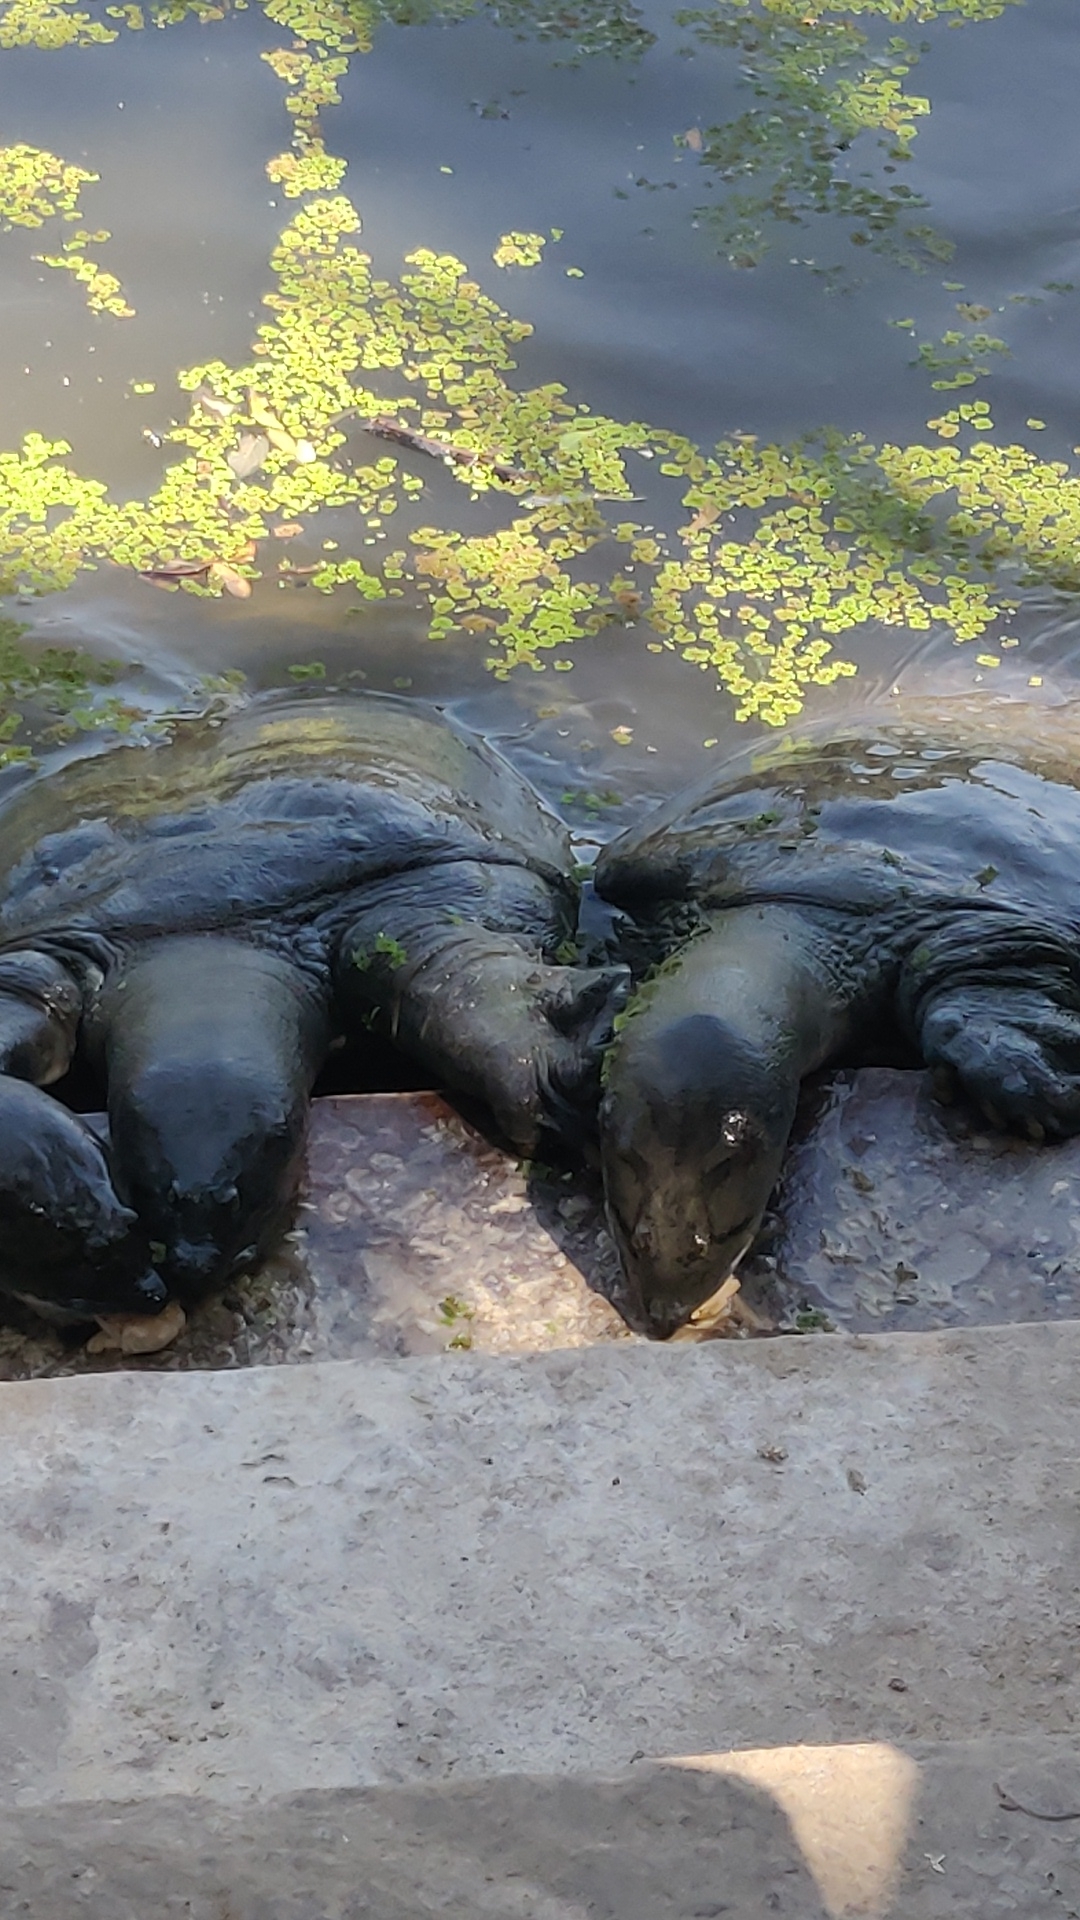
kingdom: Animalia
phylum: Chordata
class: Testudines
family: Trionychidae
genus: Nilssonia
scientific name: Nilssonia gangetica
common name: Indian softshell turtle
